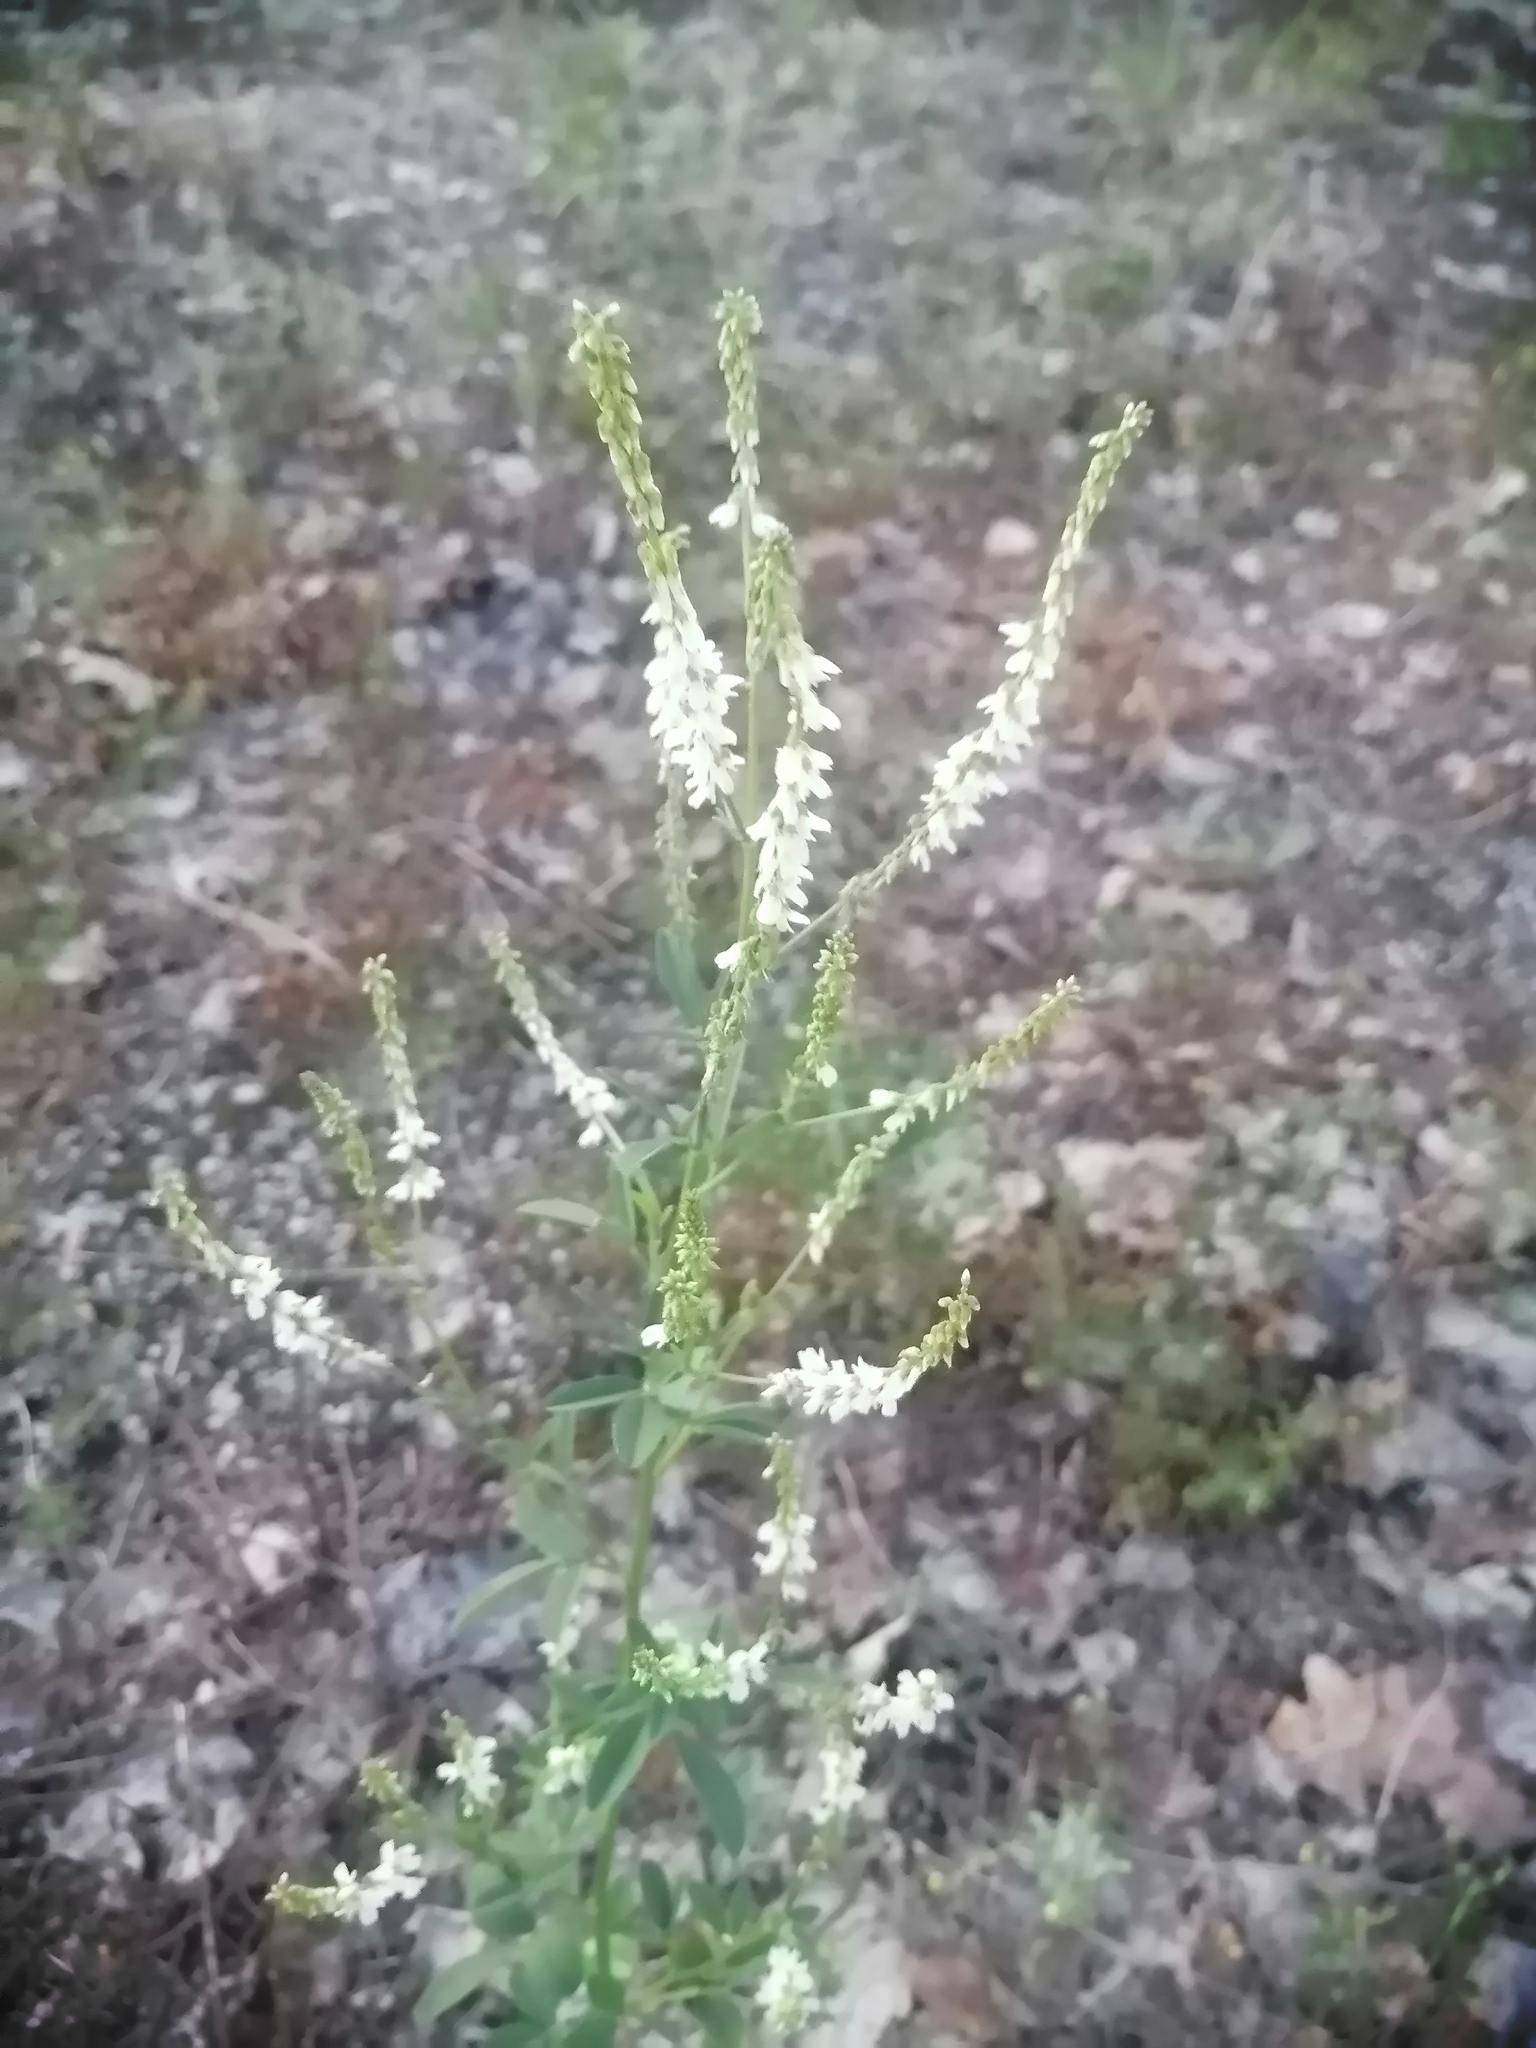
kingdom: Plantae
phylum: Tracheophyta
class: Magnoliopsida
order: Fabales
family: Fabaceae
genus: Melilotus
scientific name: Melilotus albus
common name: White melilot
